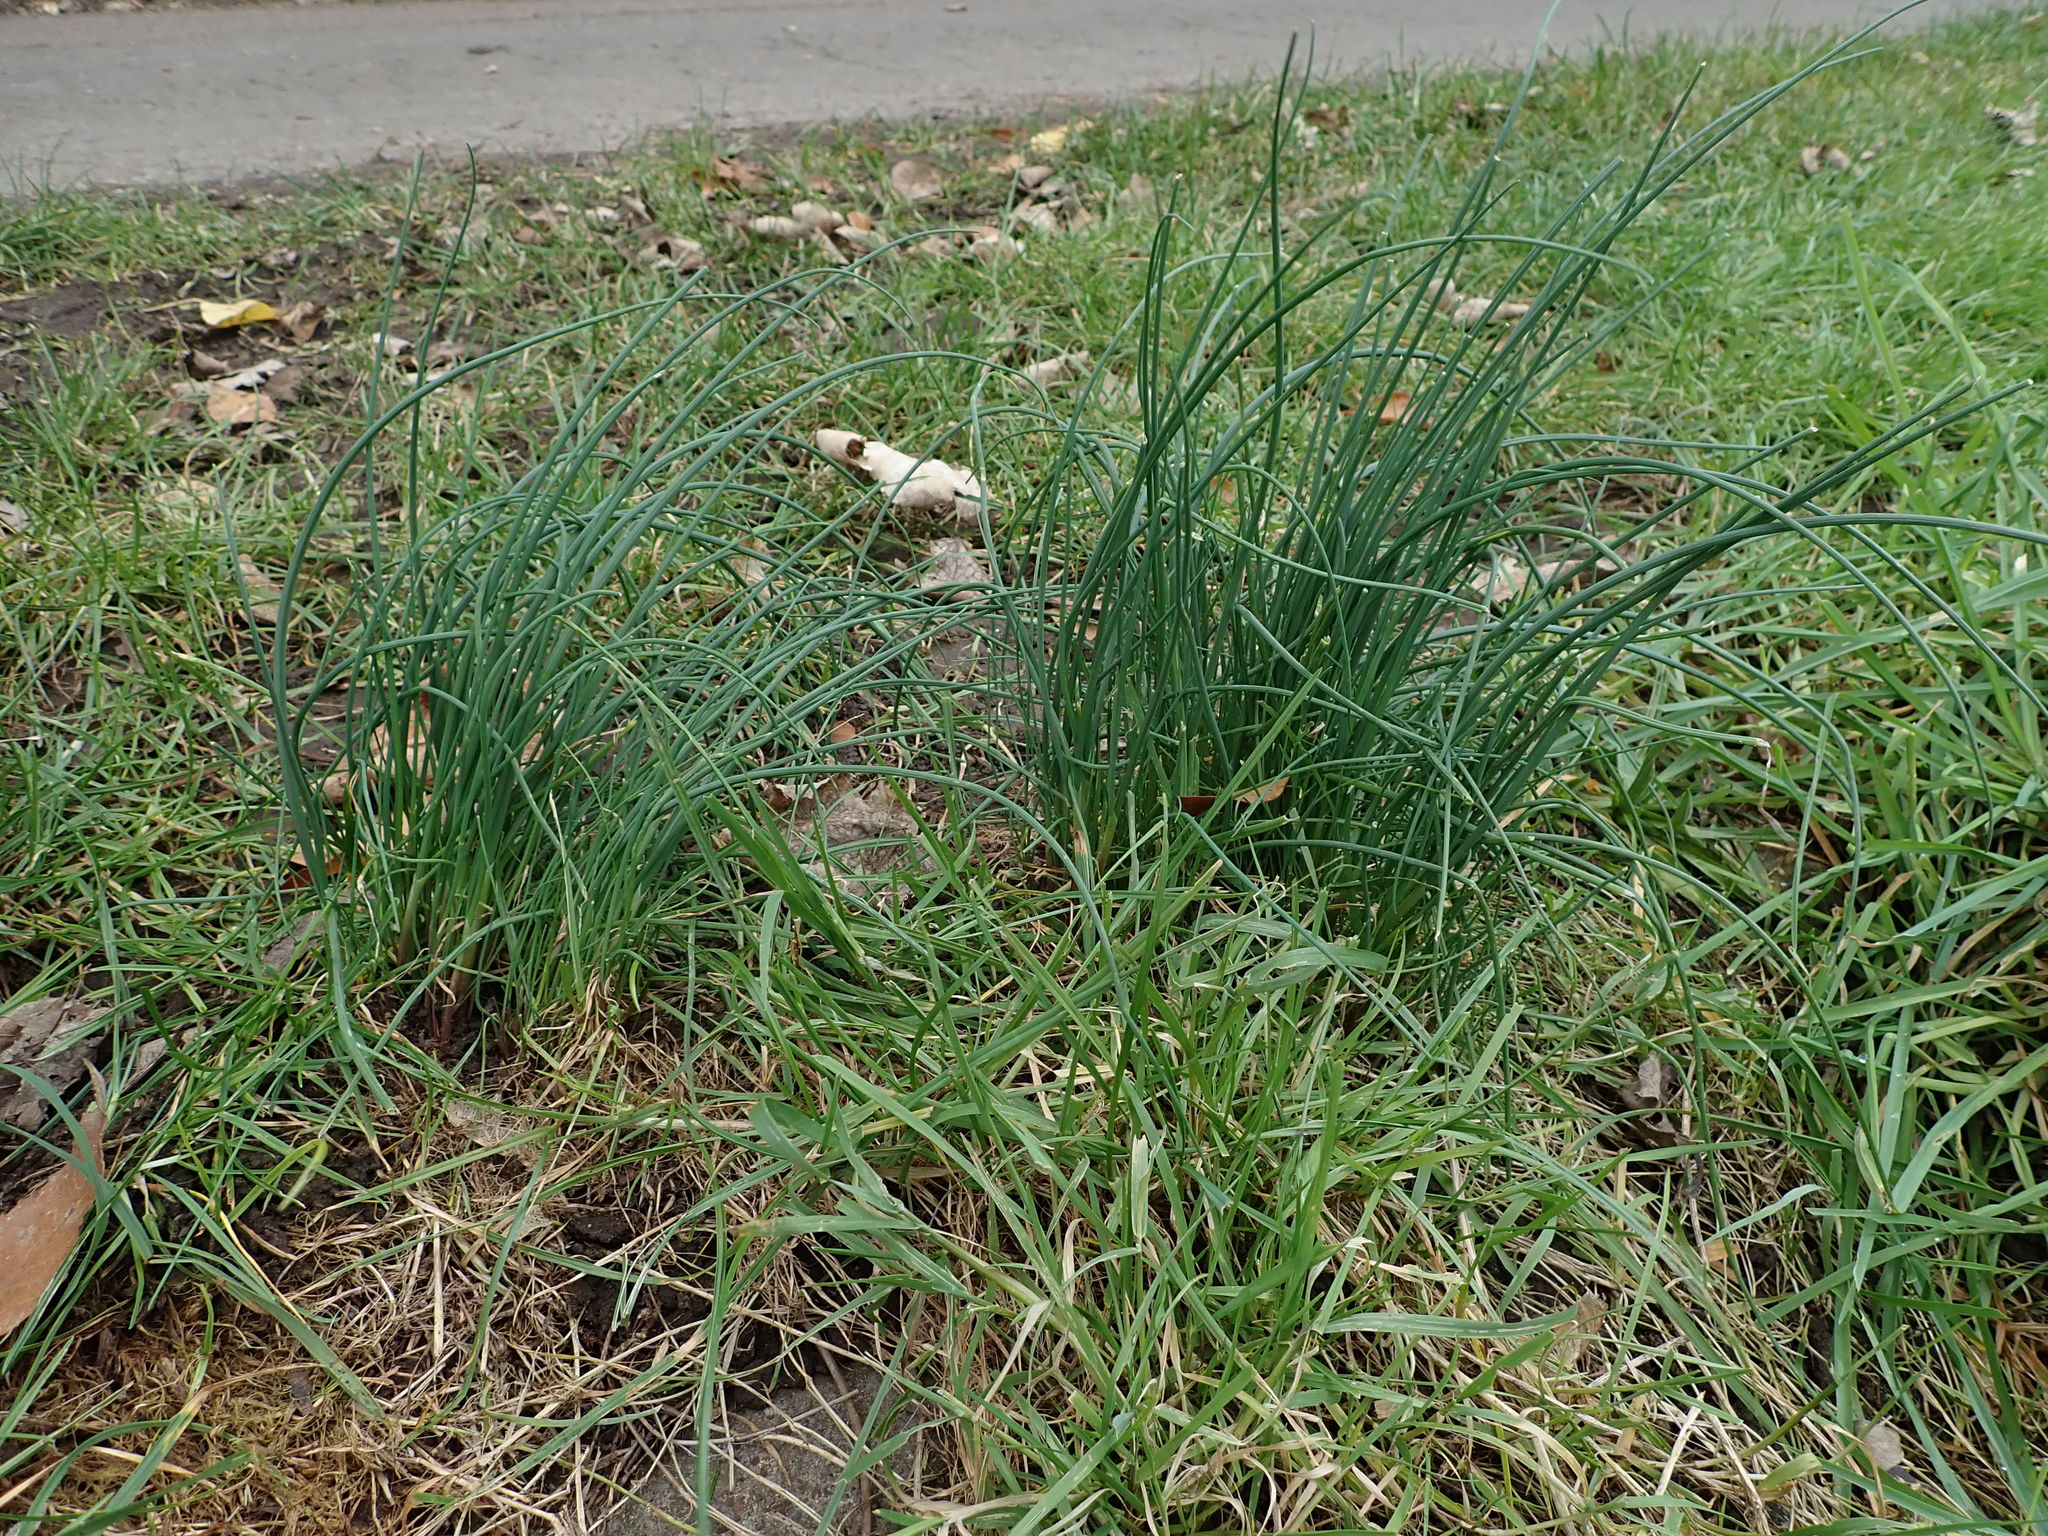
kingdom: Plantae
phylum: Tracheophyta
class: Liliopsida
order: Asparagales
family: Amaryllidaceae
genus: Allium
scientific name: Allium vineale
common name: Crow garlic
